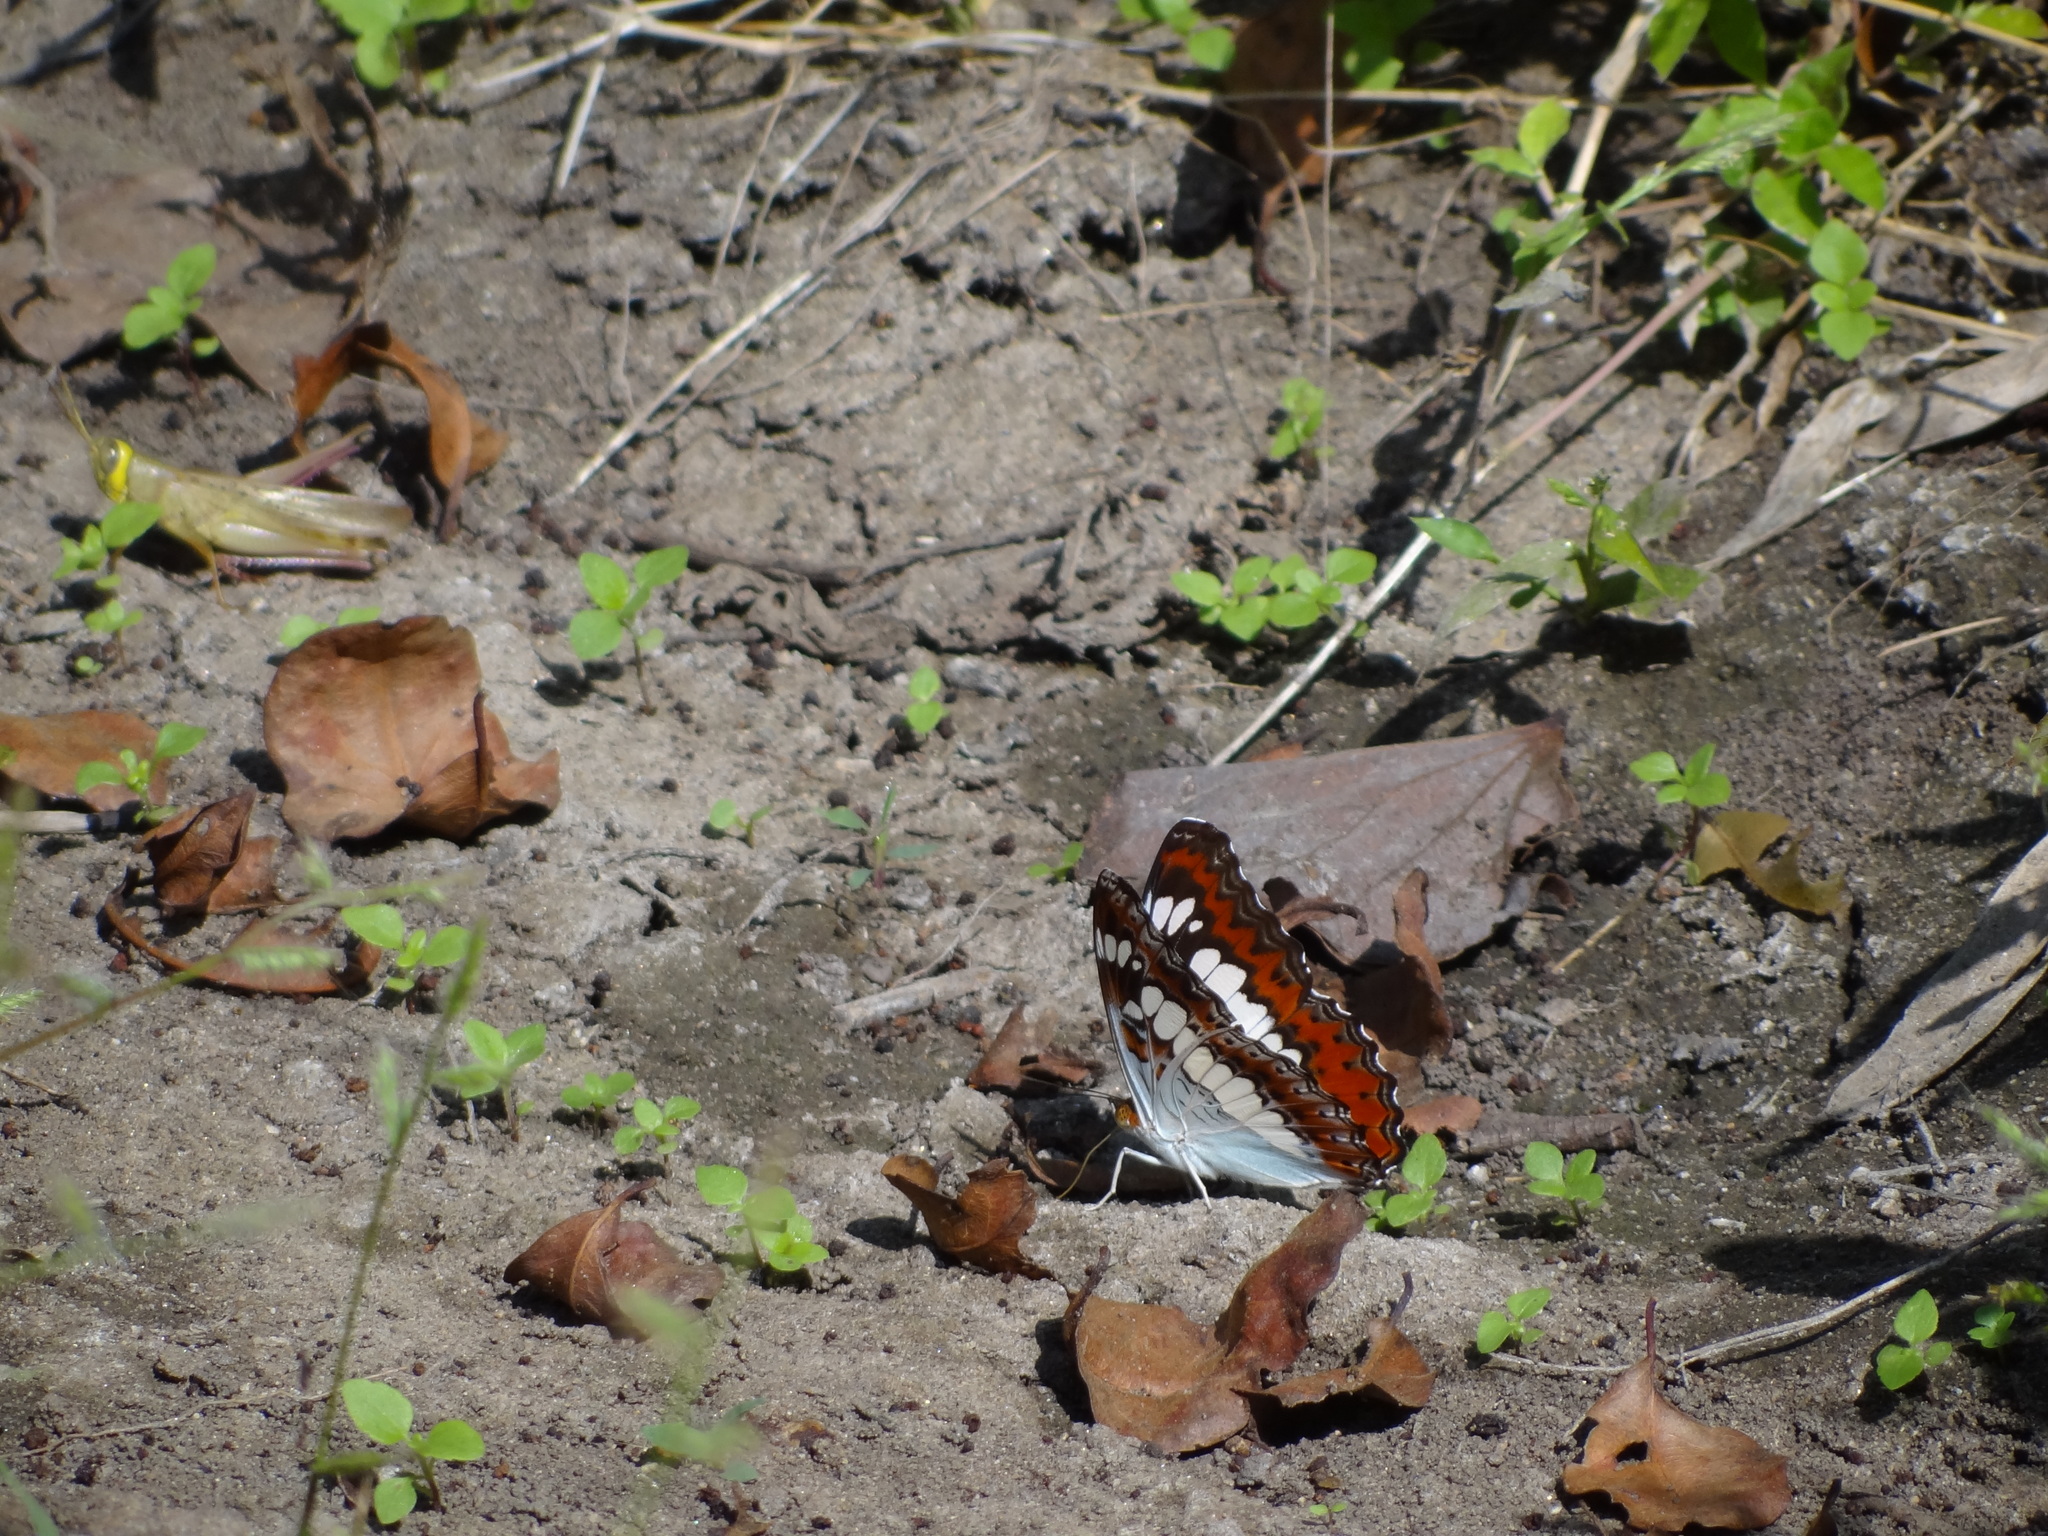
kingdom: Animalia
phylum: Arthropoda
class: Insecta
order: Lepidoptera
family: Nymphalidae
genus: Limenitis
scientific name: Limenitis Moduza procris
